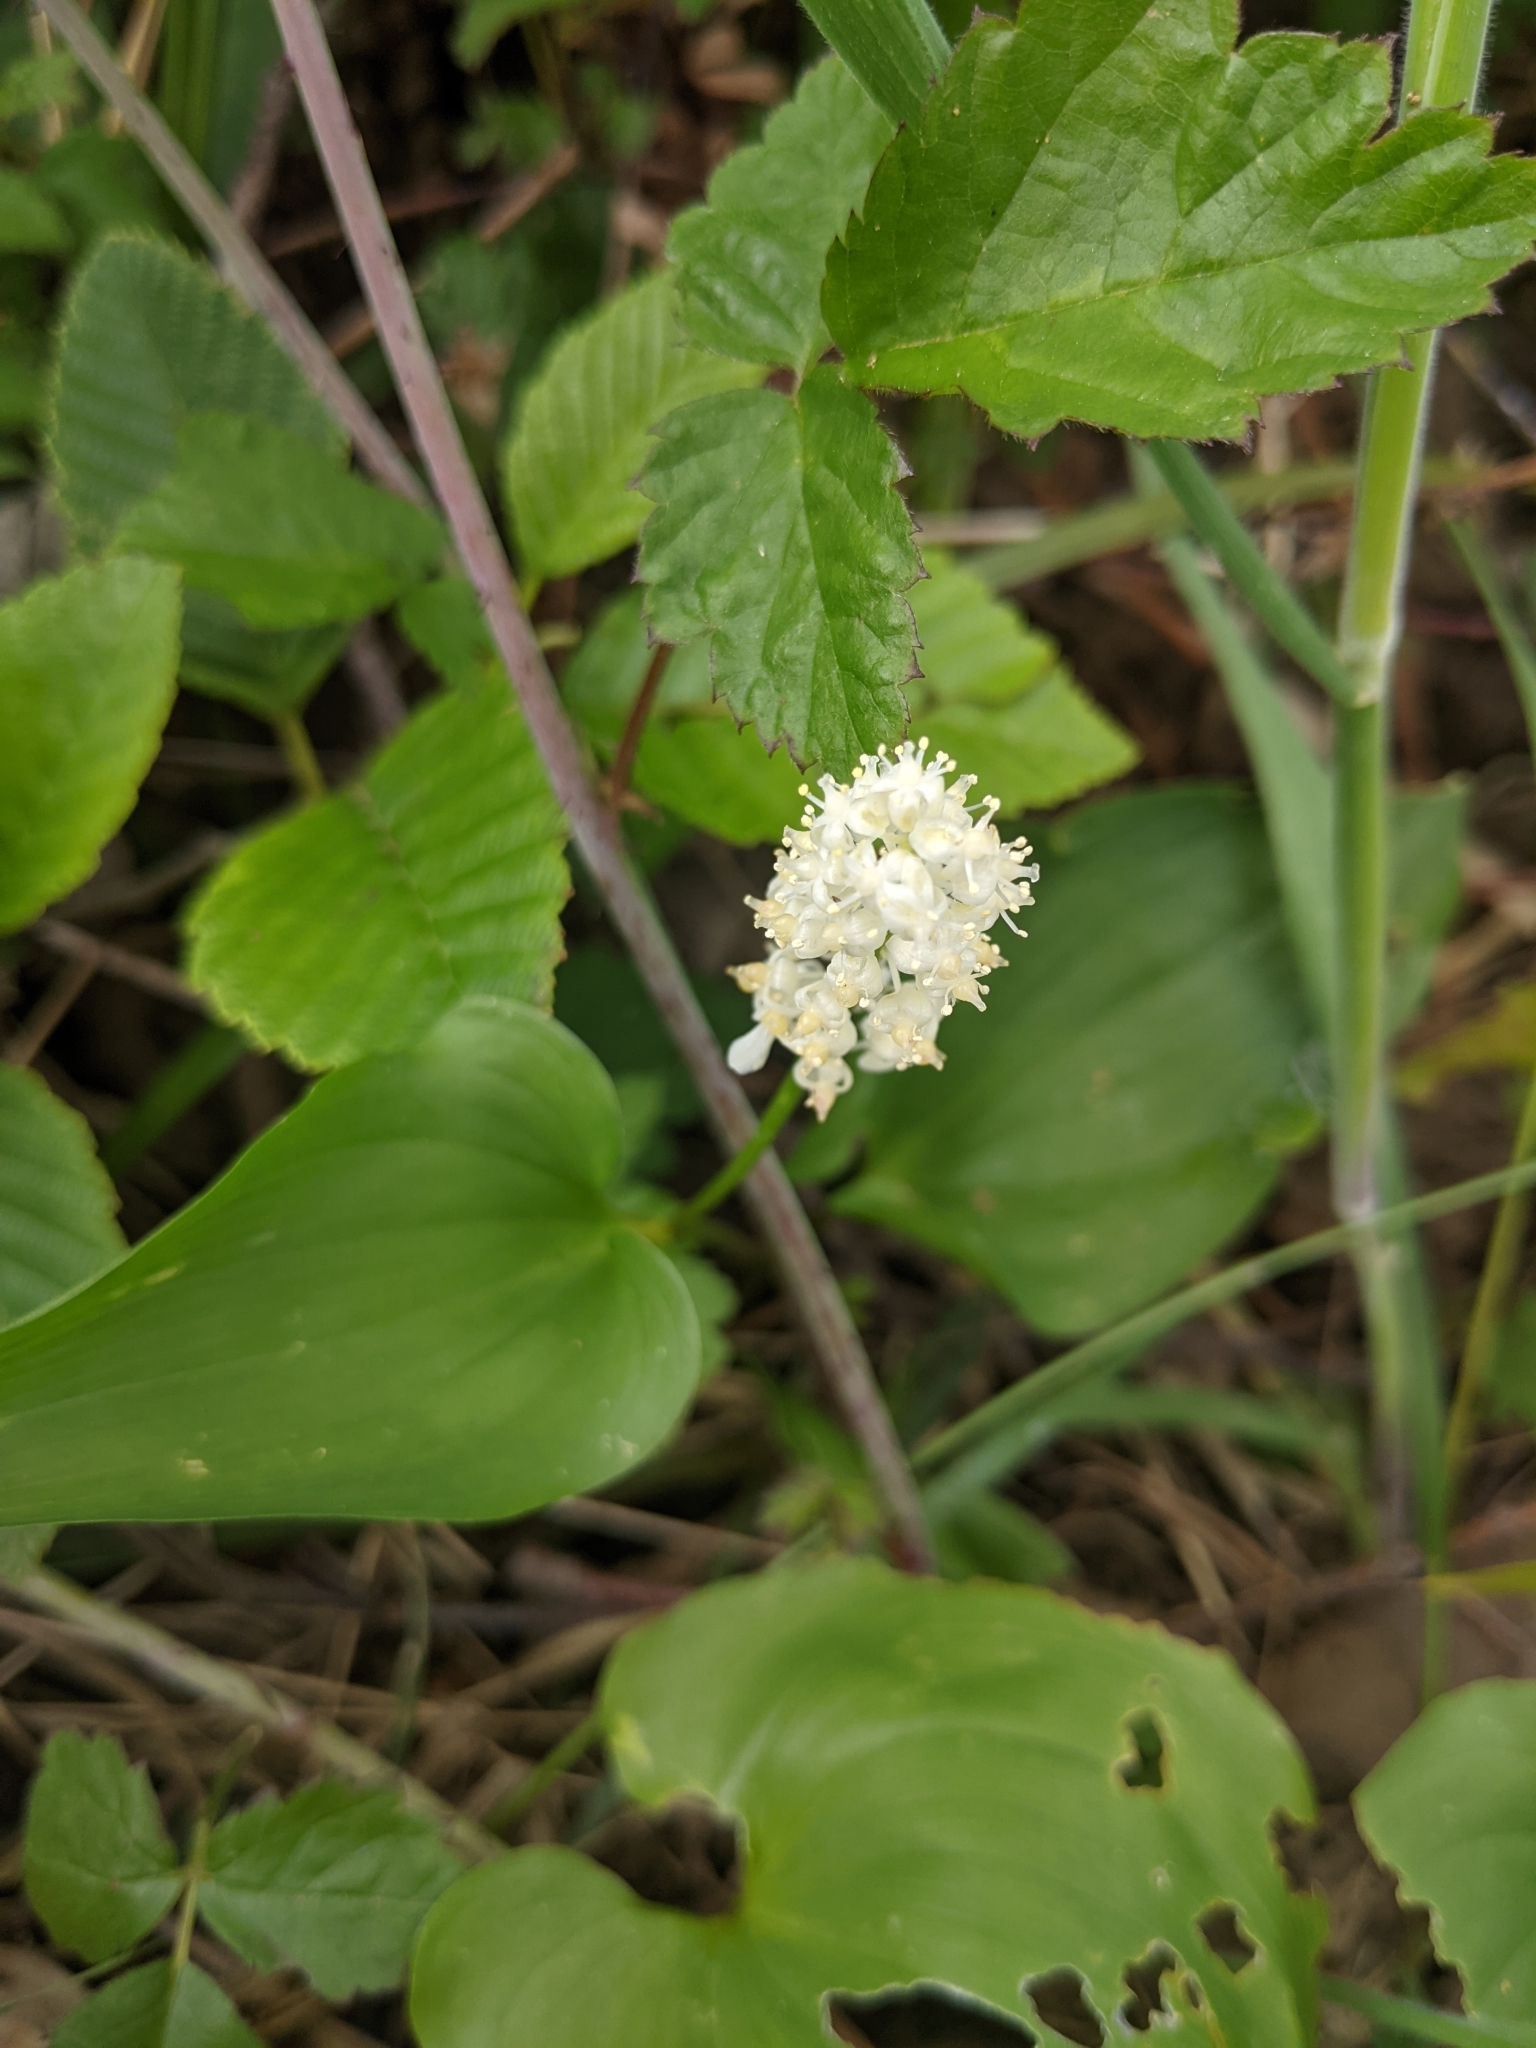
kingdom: Plantae
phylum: Tracheophyta
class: Liliopsida
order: Asparagales
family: Asparagaceae
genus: Maianthemum
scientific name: Maianthemum dilatatum
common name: False lily-of-the-valley
